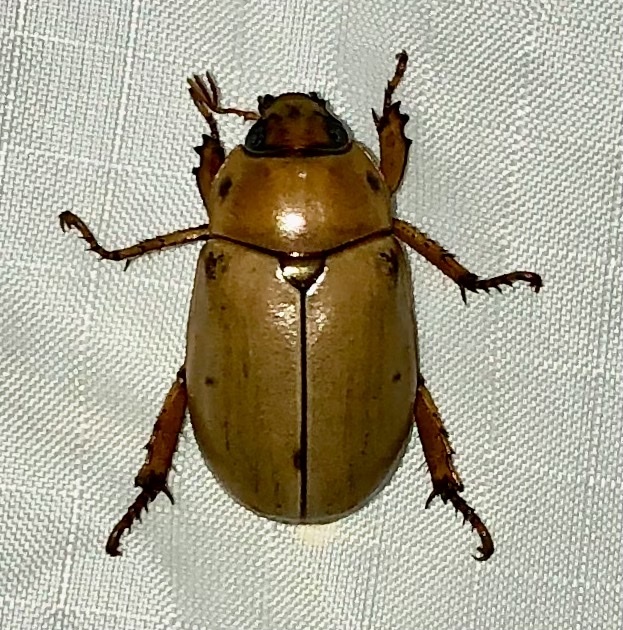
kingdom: Animalia
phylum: Arthropoda
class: Insecta
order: Coleoptera
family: Scarabaeidae
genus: Pelidnota
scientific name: Pelidnota punctata
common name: Grapevine beetle
